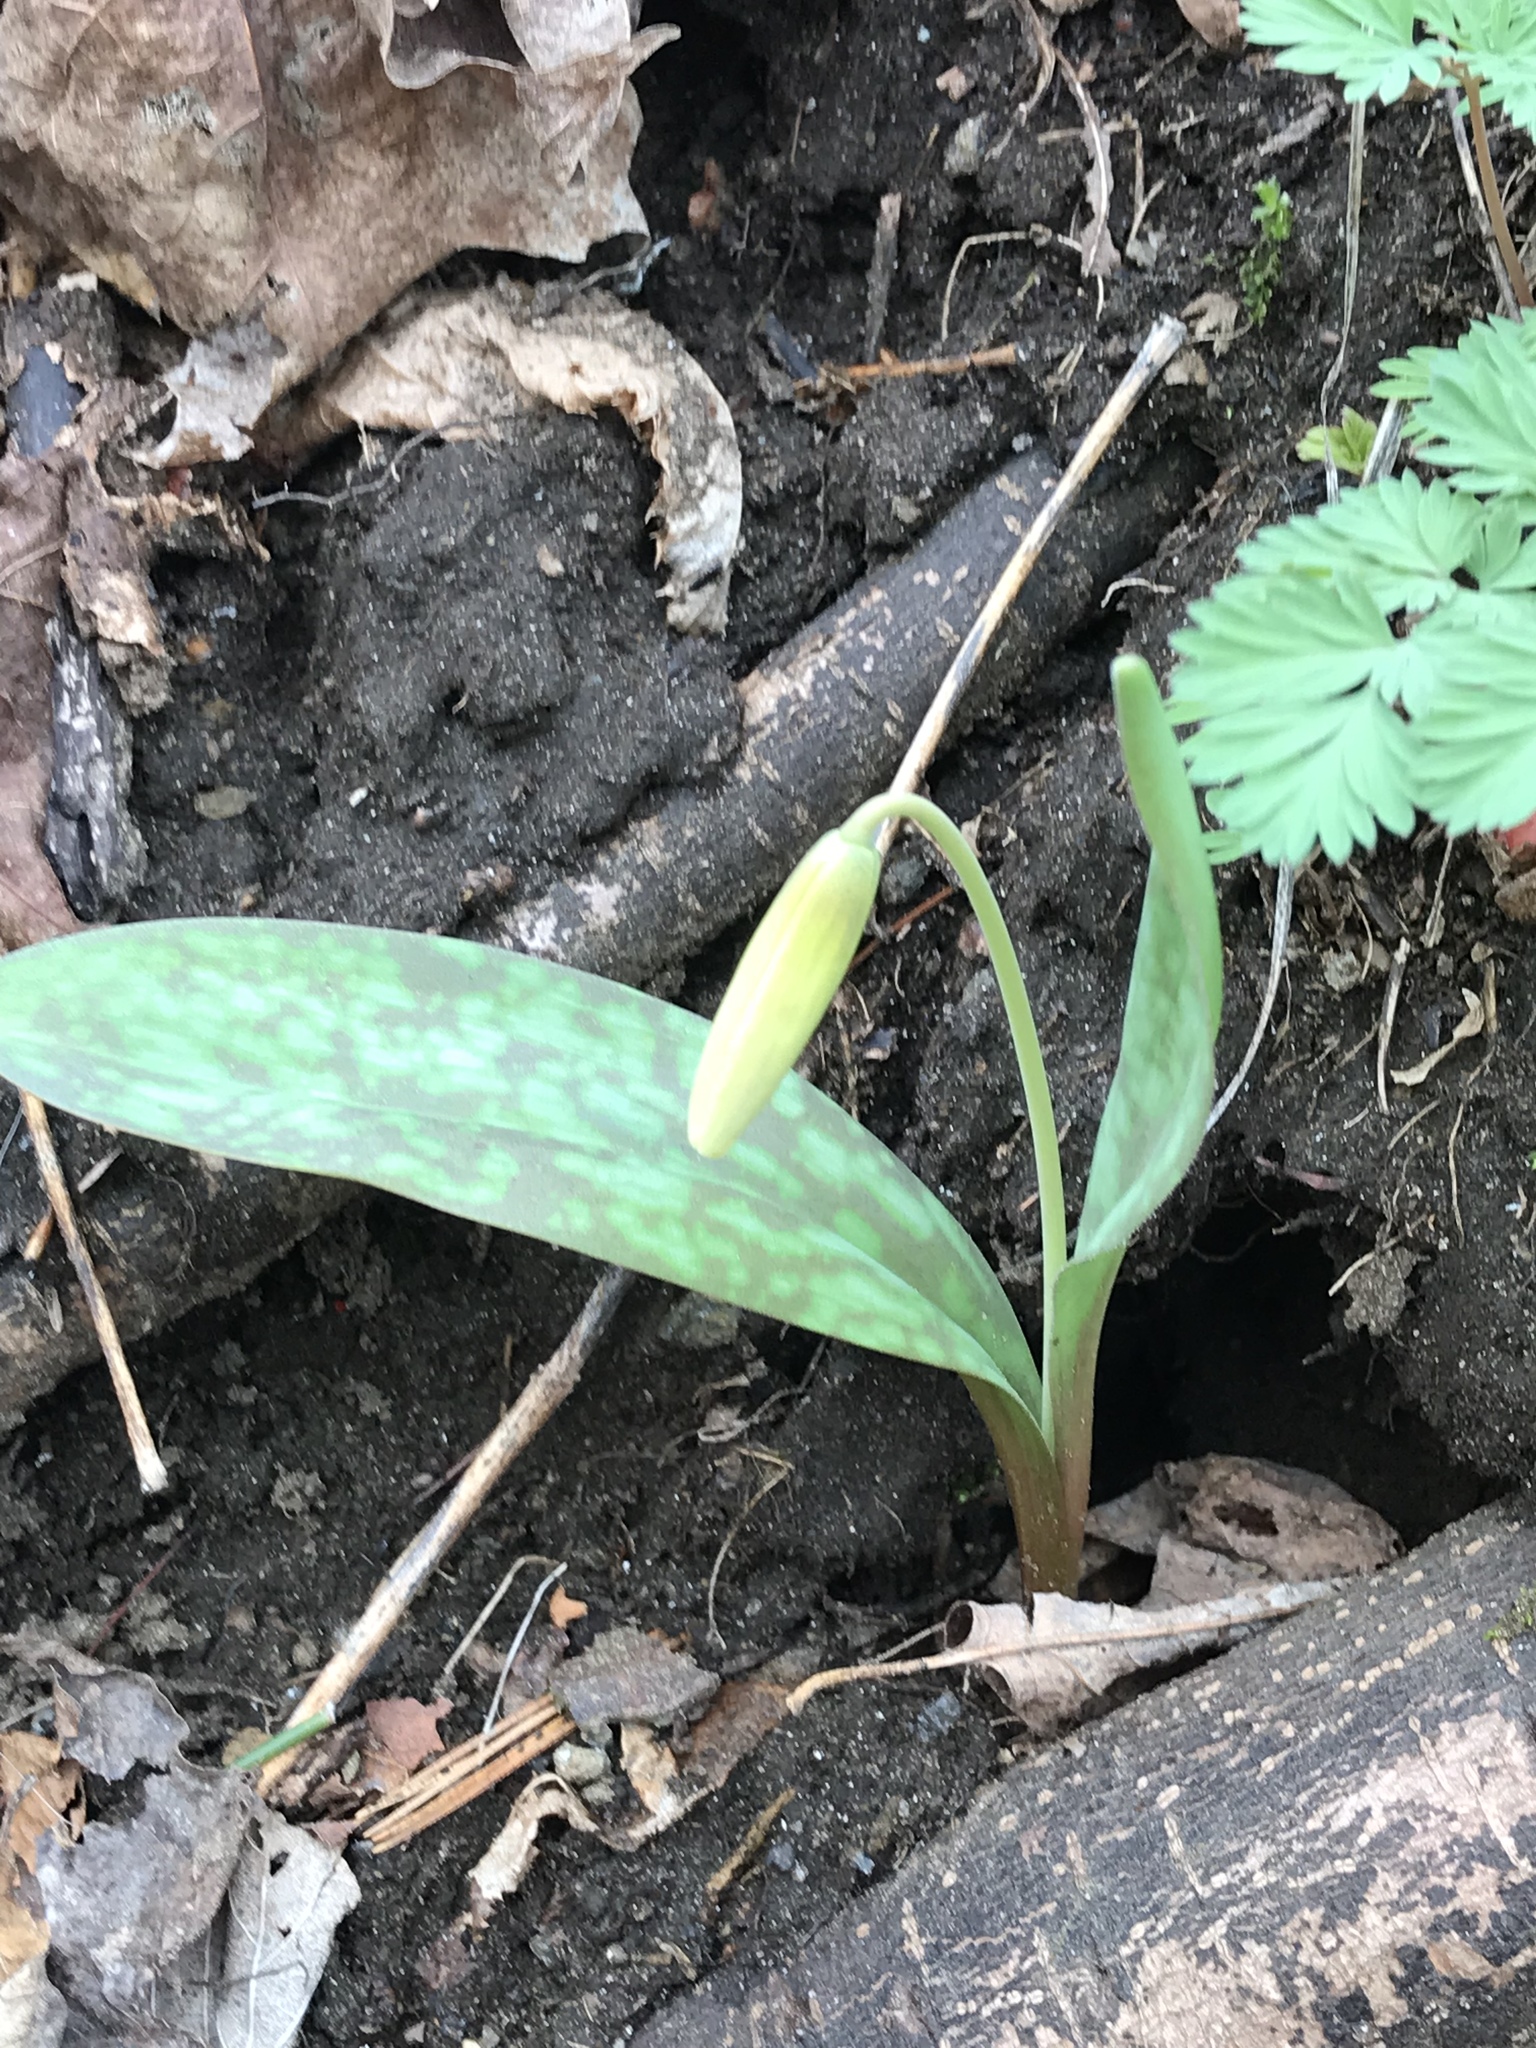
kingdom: Plantae
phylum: Tracheophyta
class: Liliopsida
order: Liliales
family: Liliaceae
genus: Erythronium
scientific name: Erythronium americanum
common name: Yellow adder's-tongue
